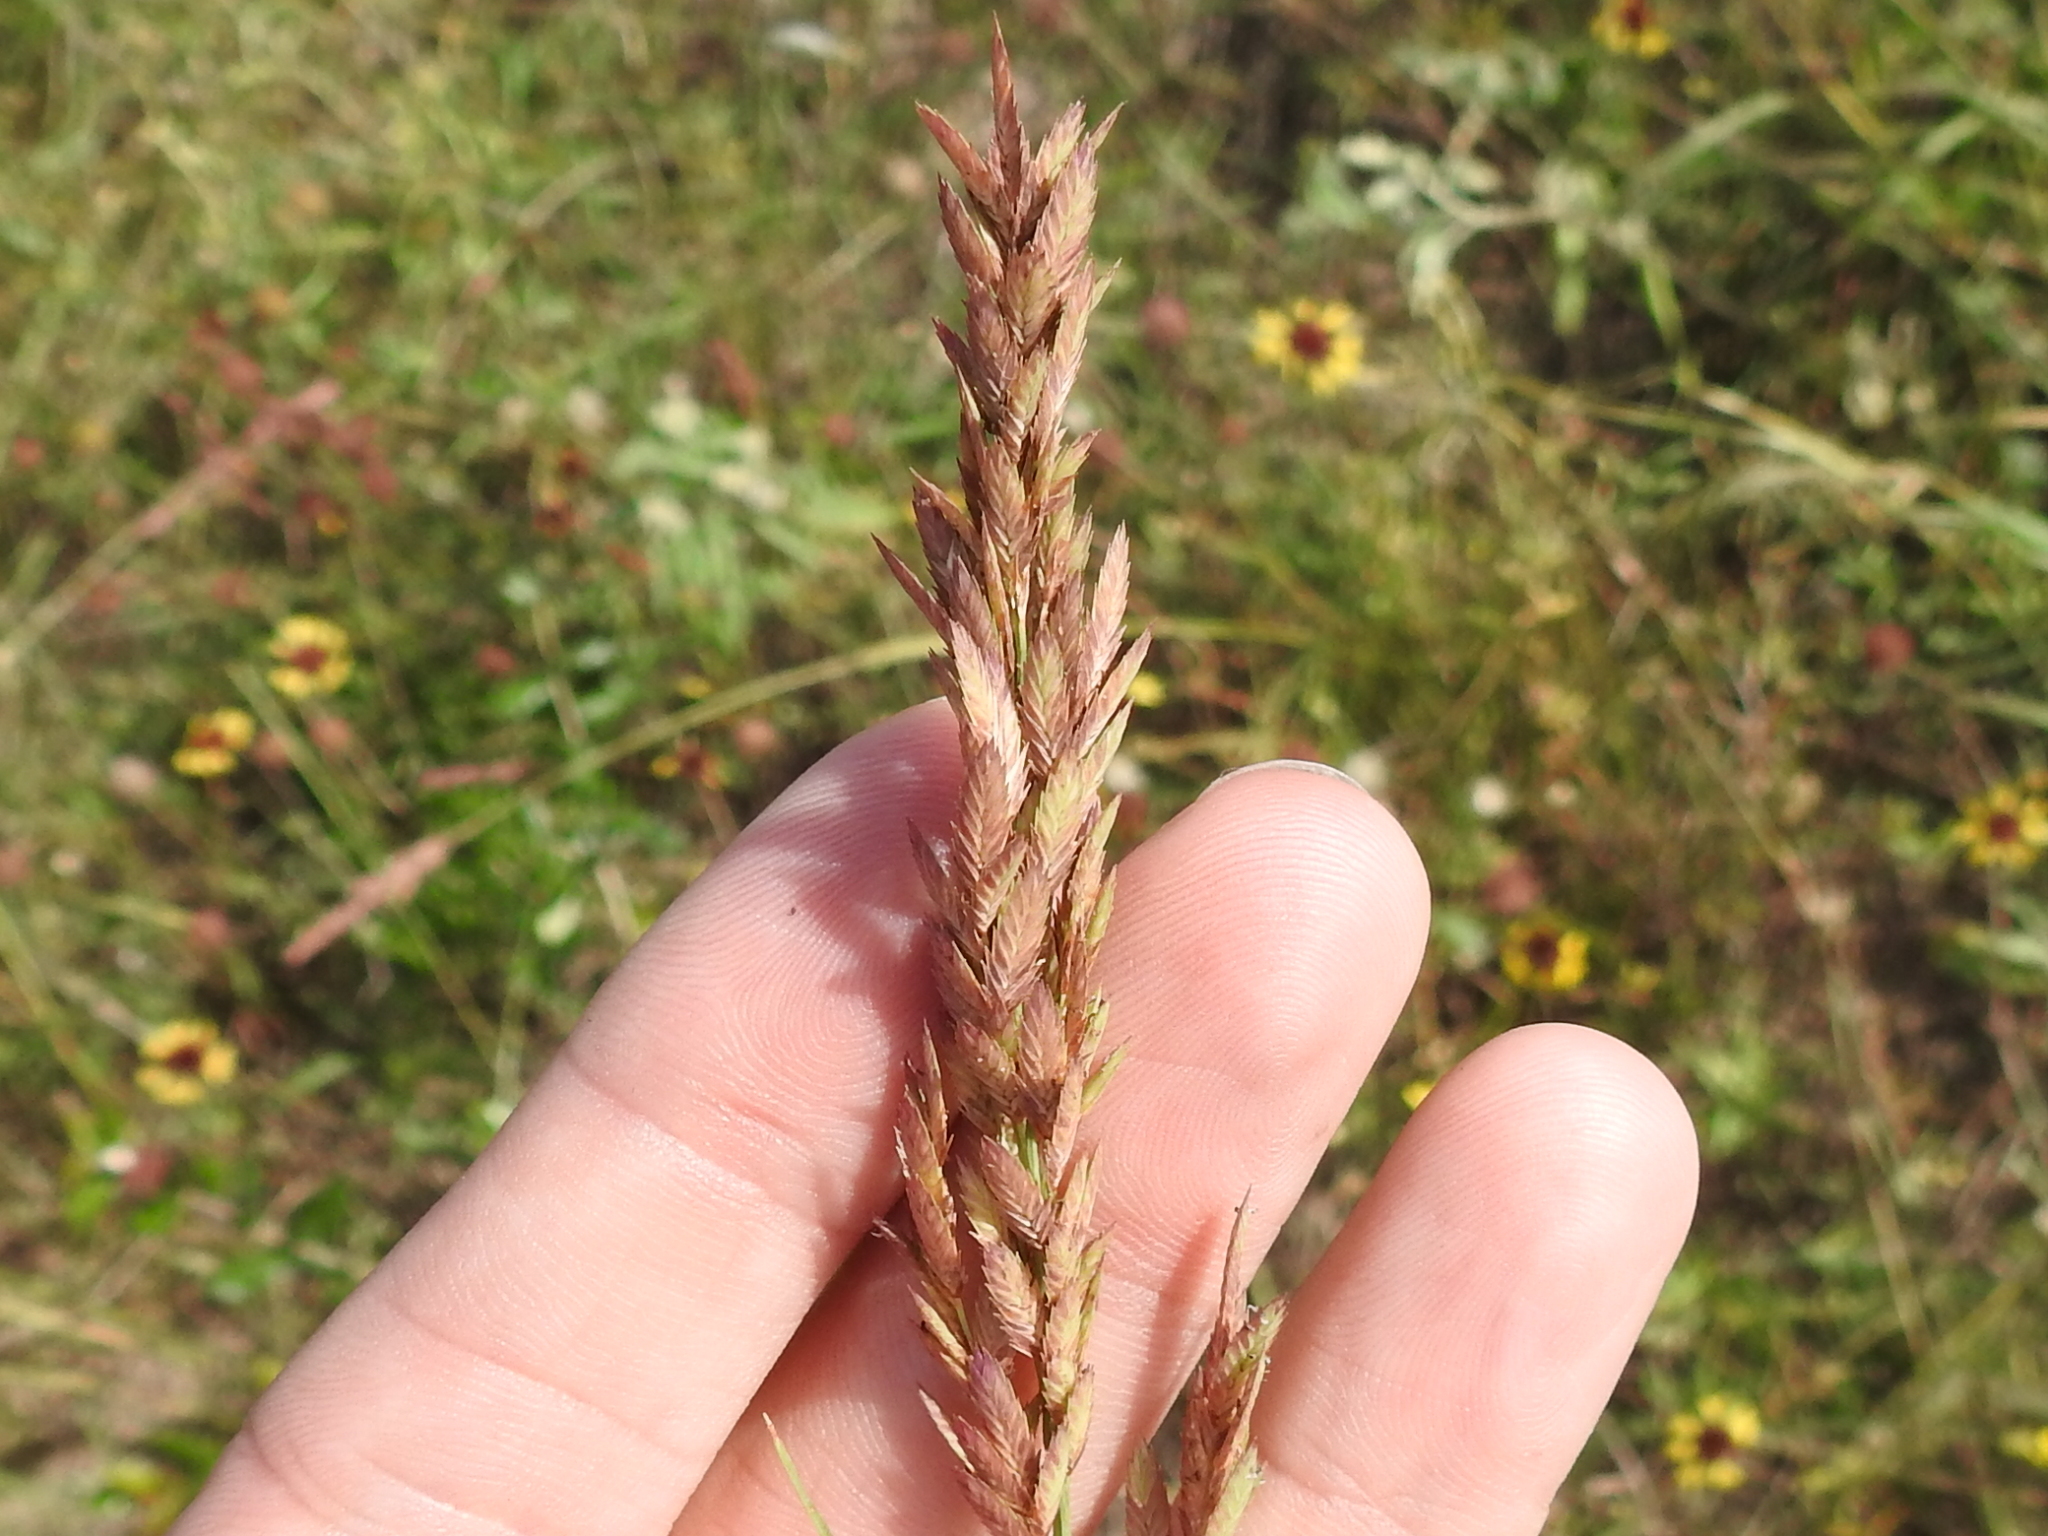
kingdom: Plantae
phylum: Tracheophyta
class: Liliopsida
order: Poales
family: Poaceae
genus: Eragrostis
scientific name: Eragrostis secundiflora
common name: Red love grass
